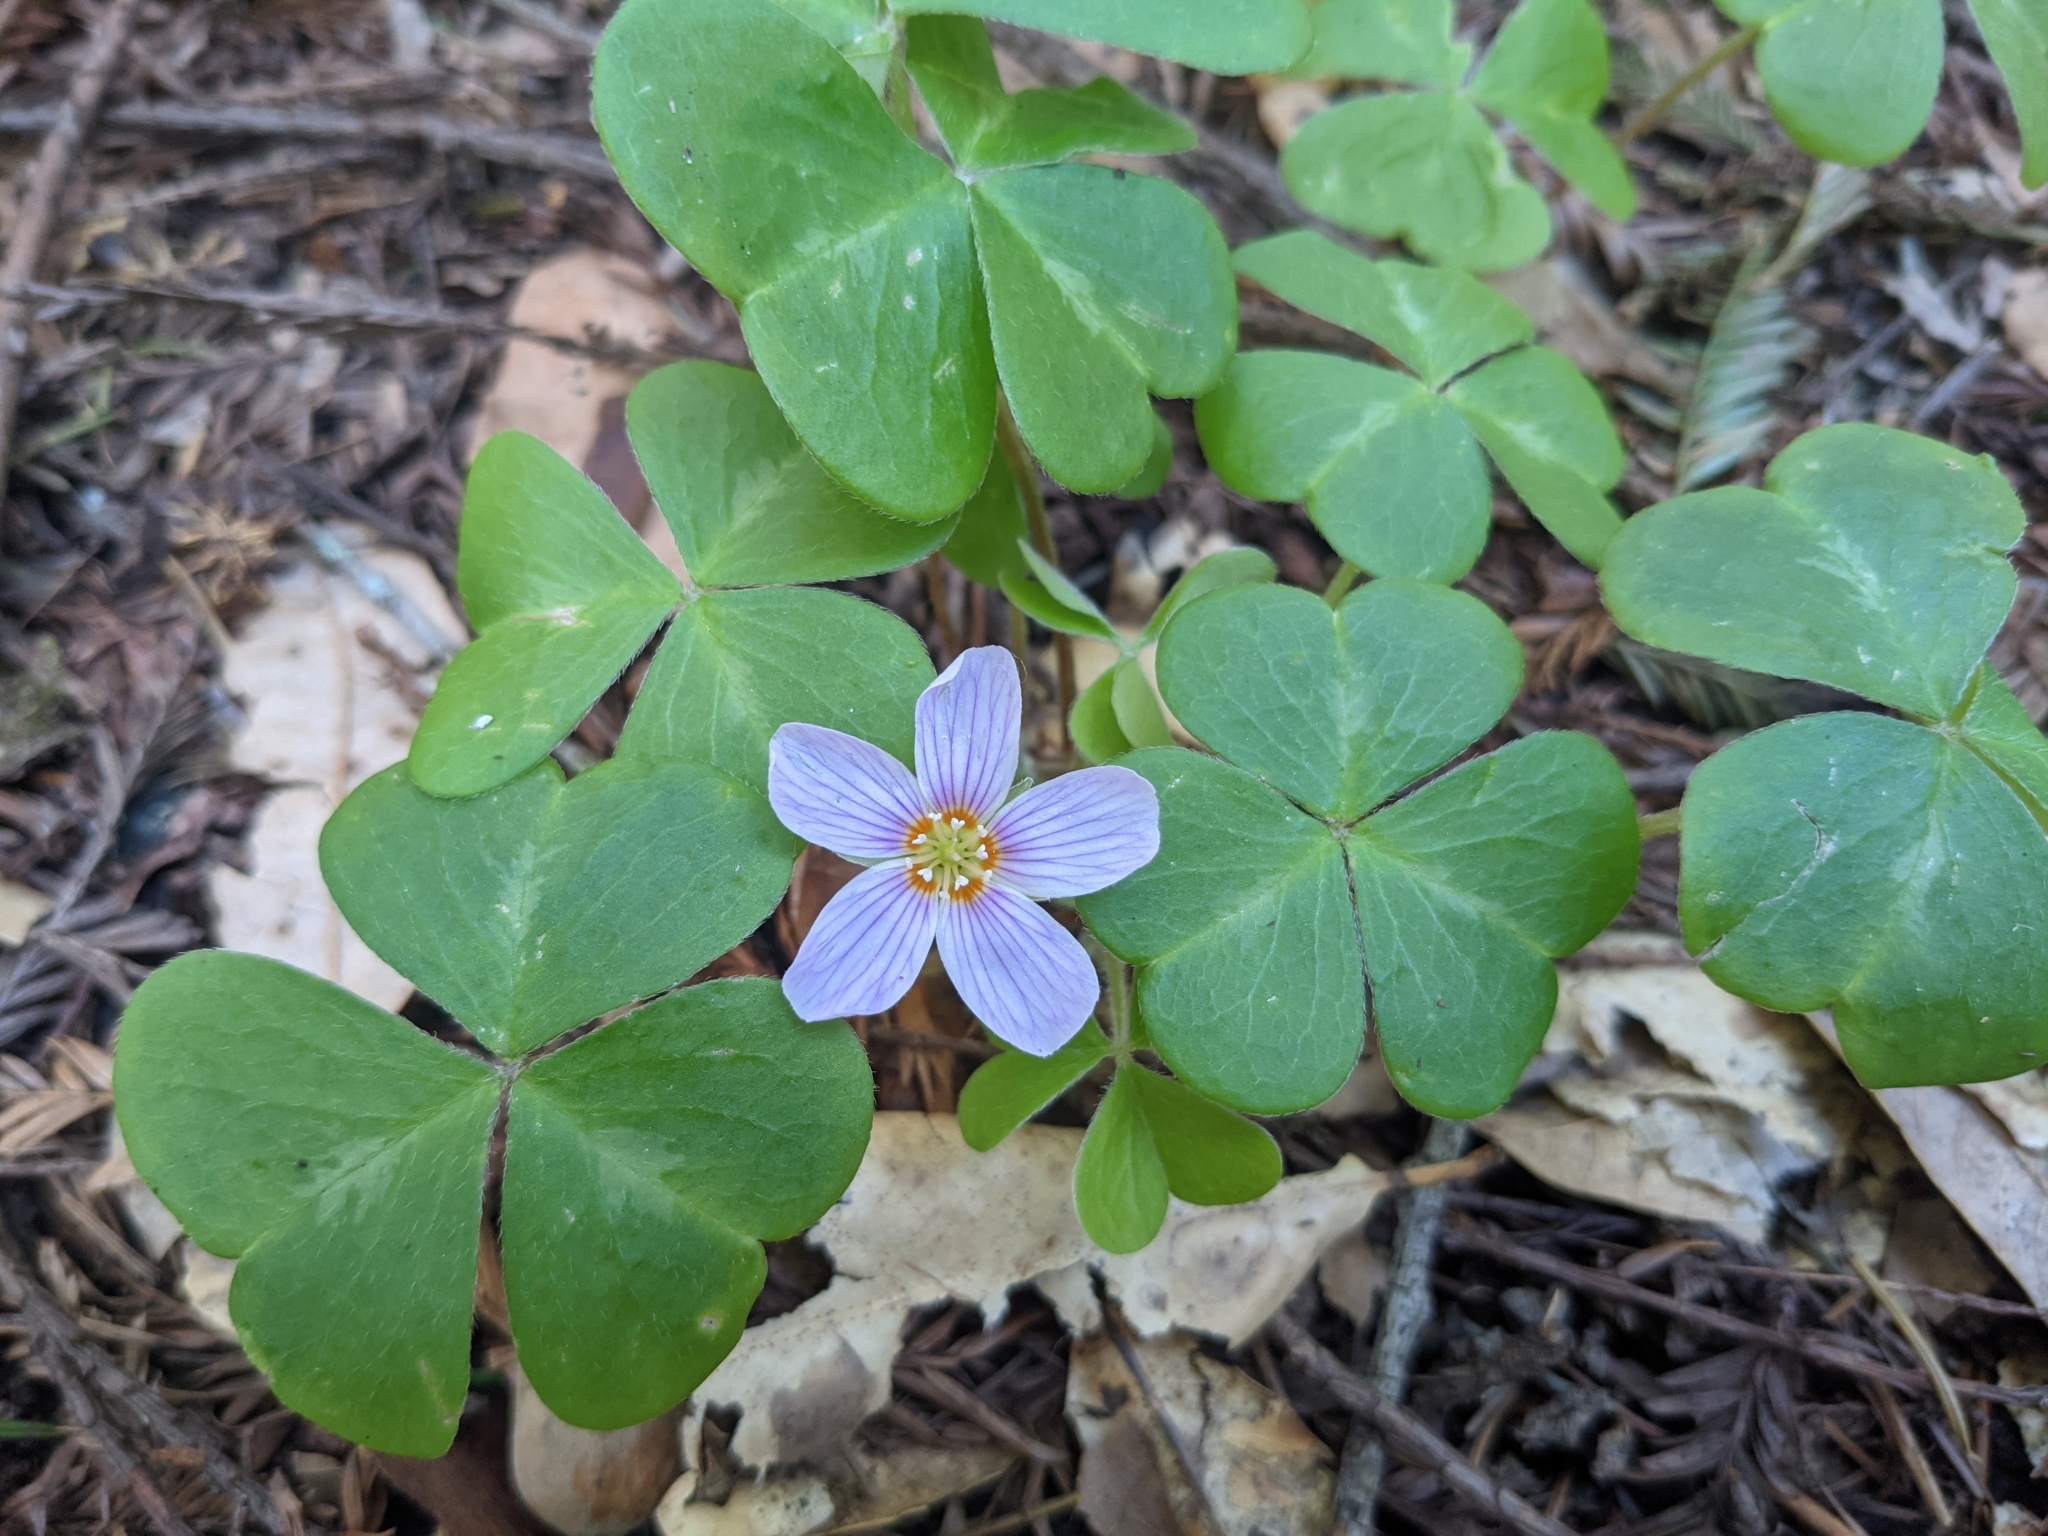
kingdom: Plantae
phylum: Tracheophyta
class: Magnoliopsida
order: Oxalidales
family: Oxalidaceae
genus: Oxalis
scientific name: Oxalis oregana
